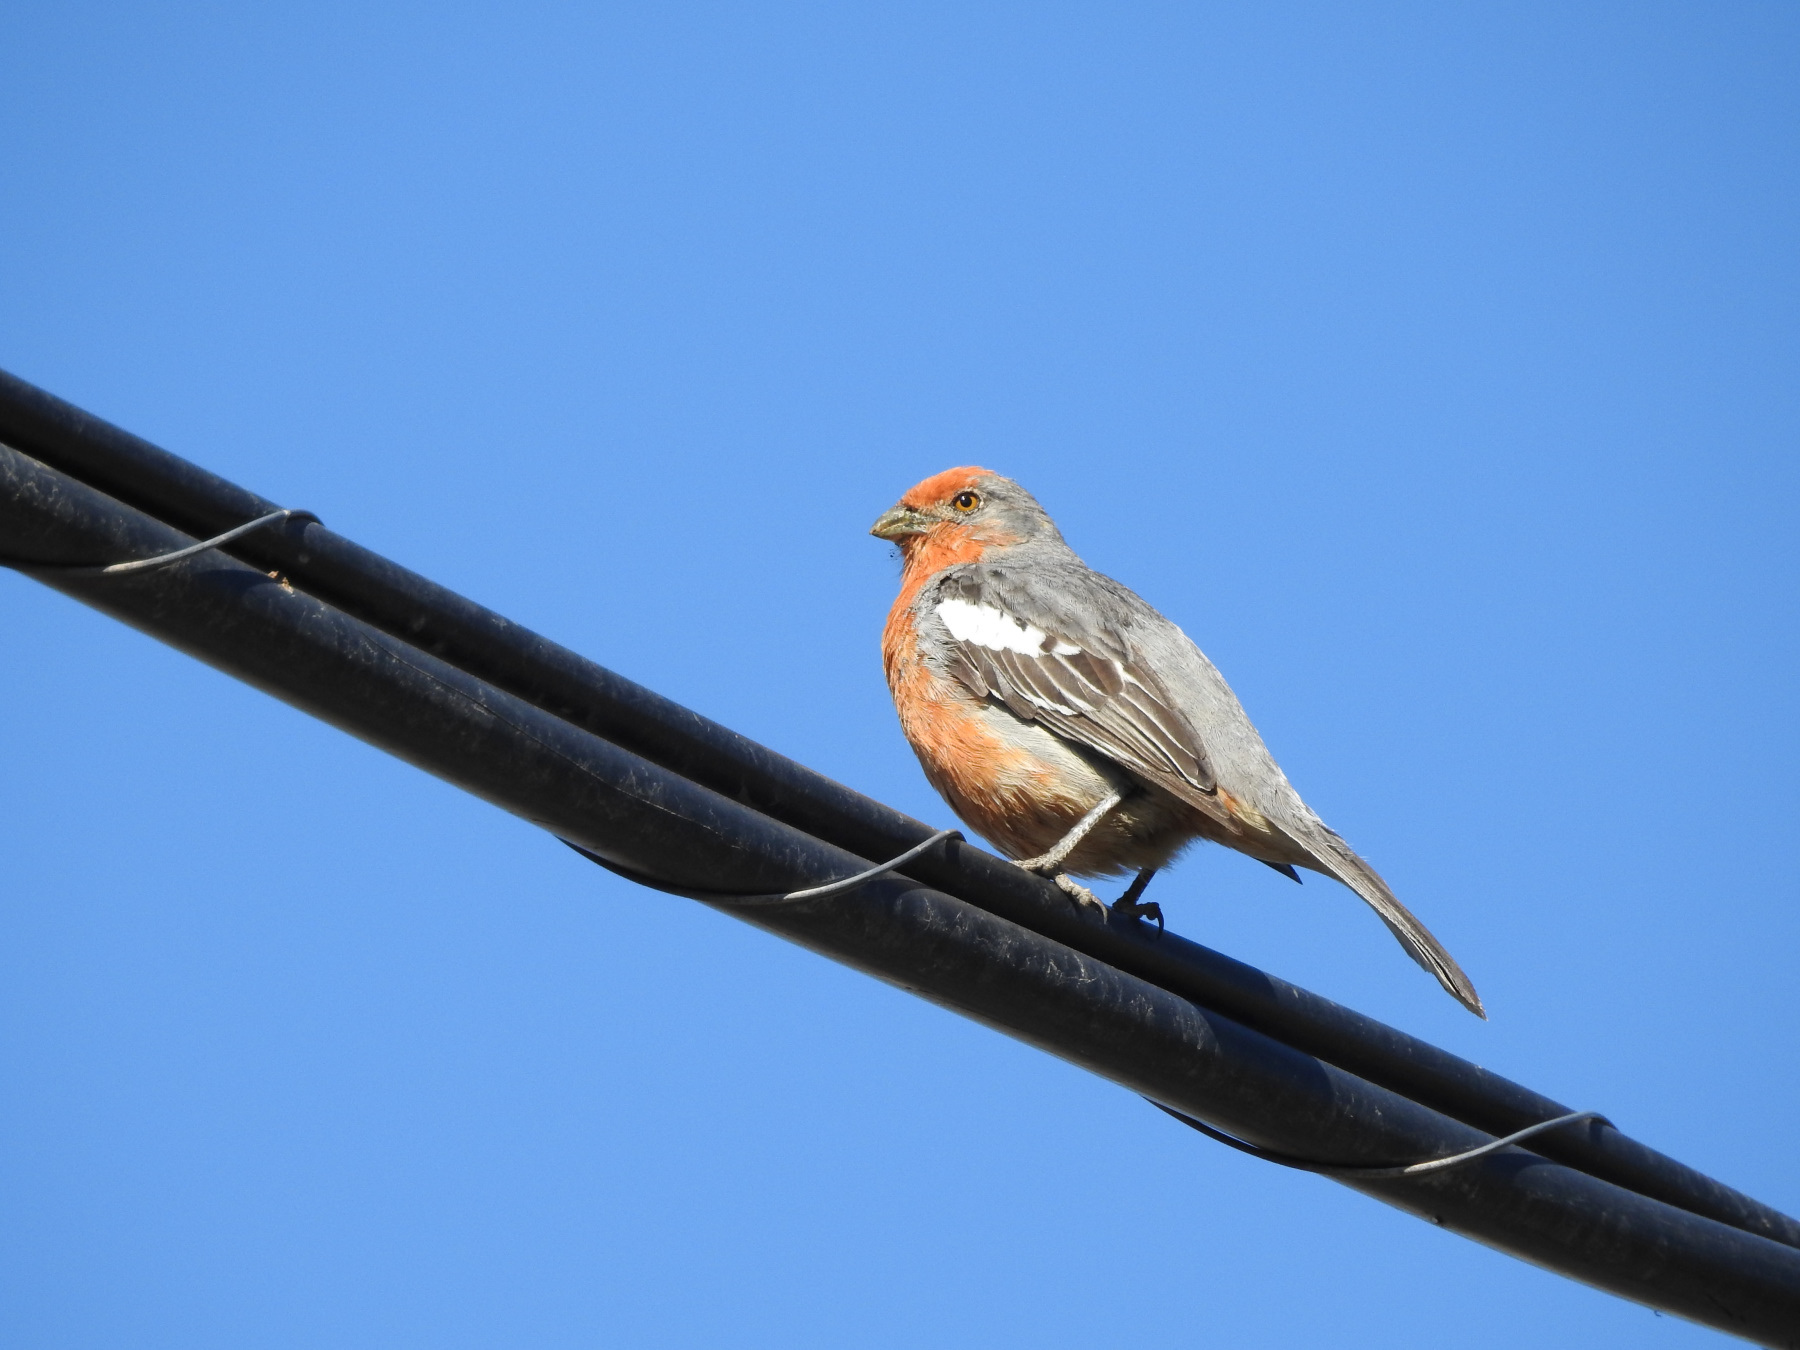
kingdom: Animalia
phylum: Chordata
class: Aves
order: Passeriformes
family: Cotingidae
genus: Phytotoma
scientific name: Phytotoma rutila
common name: White-tipped plantcutter
